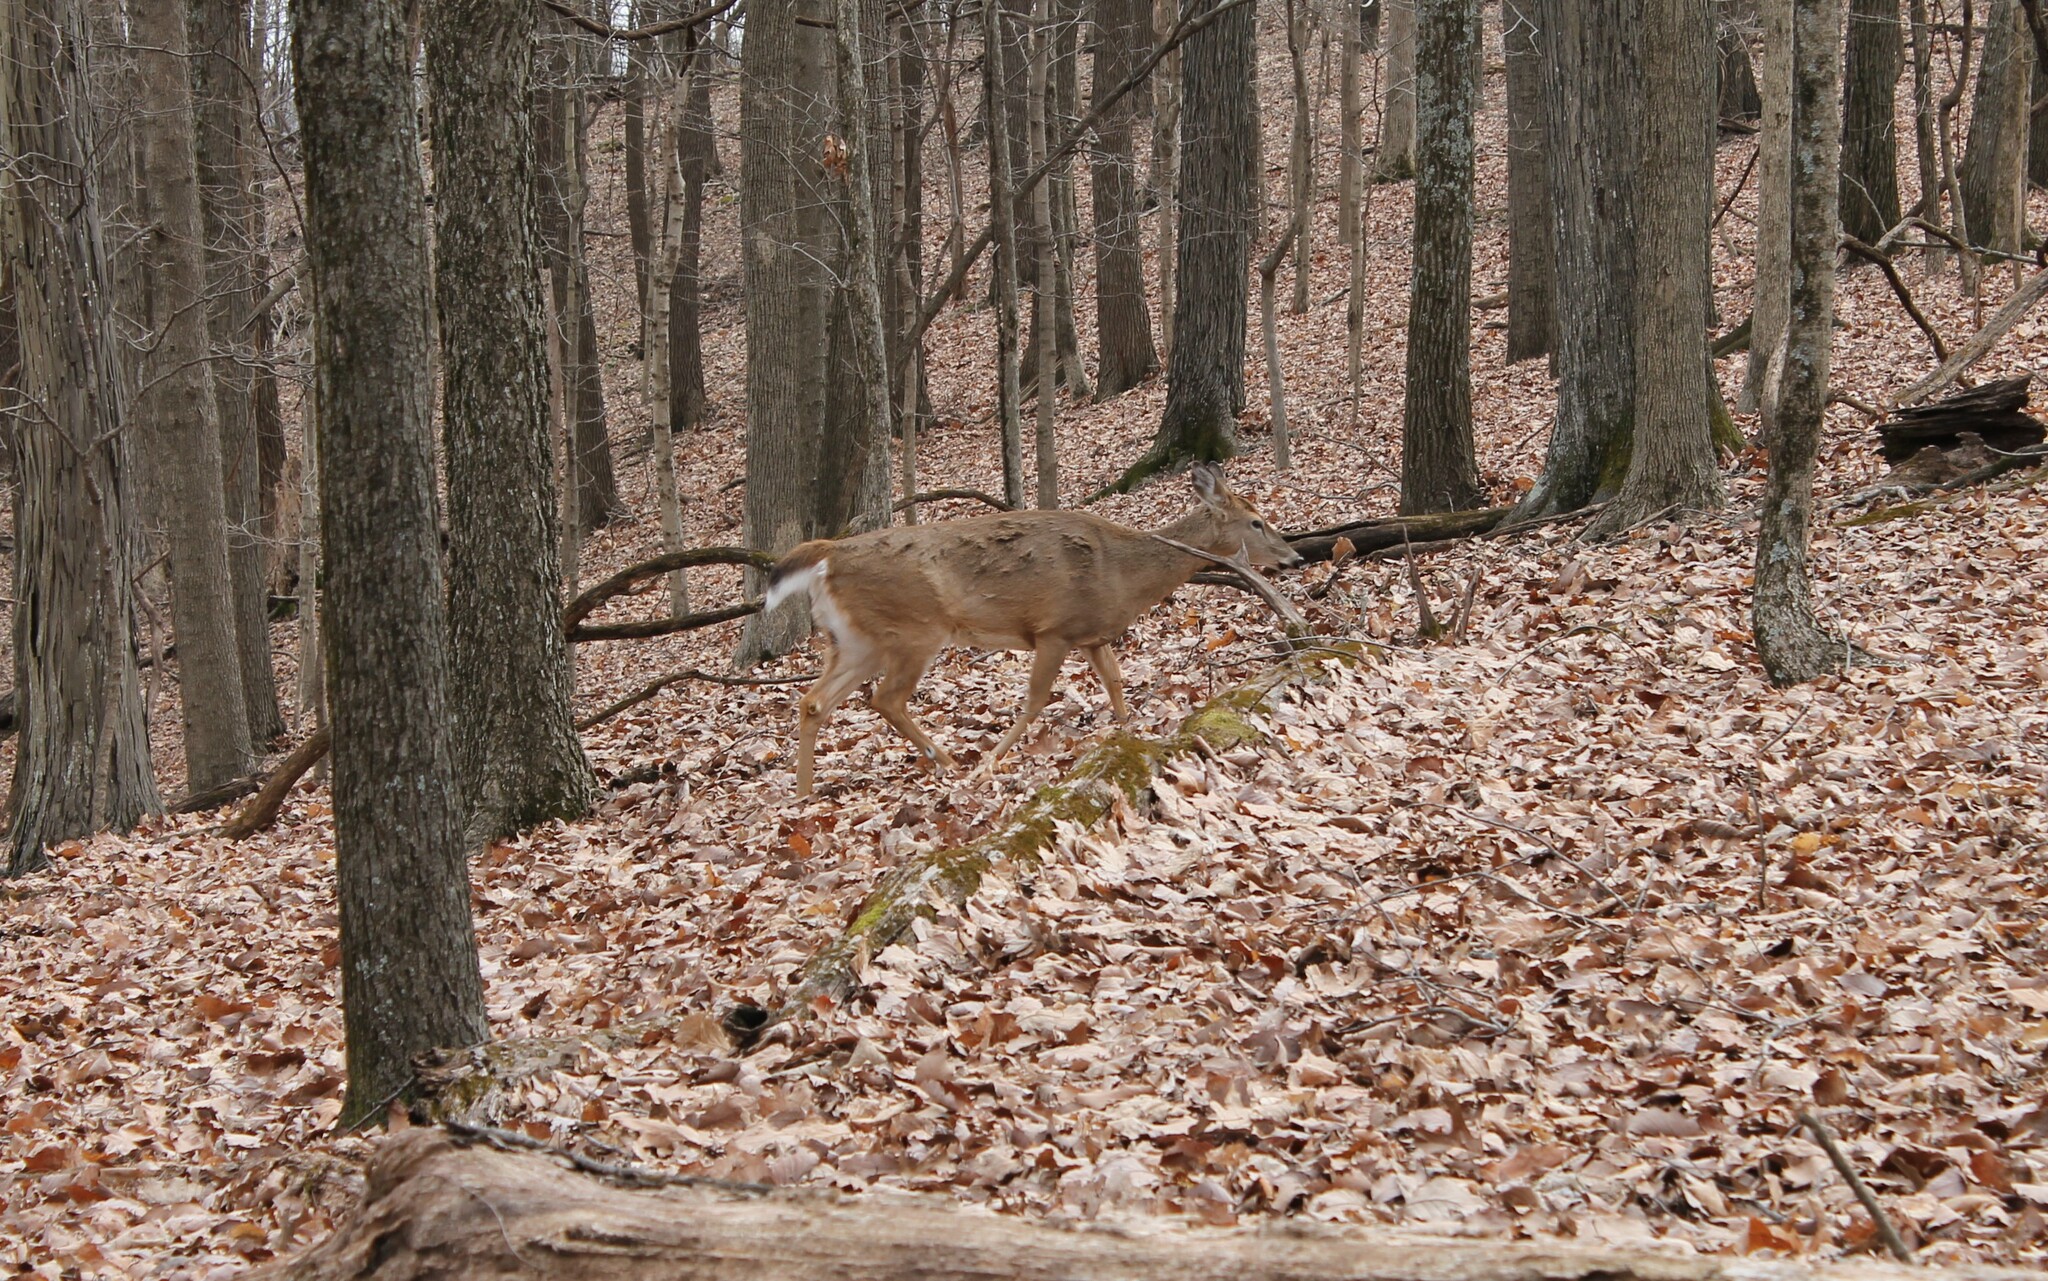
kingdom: Animalia
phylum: Chordata
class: Mammalia
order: Artiodactyla
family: Cervidae
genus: Odocoileus
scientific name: Odocoileus virginianus
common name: White-tailed deer
